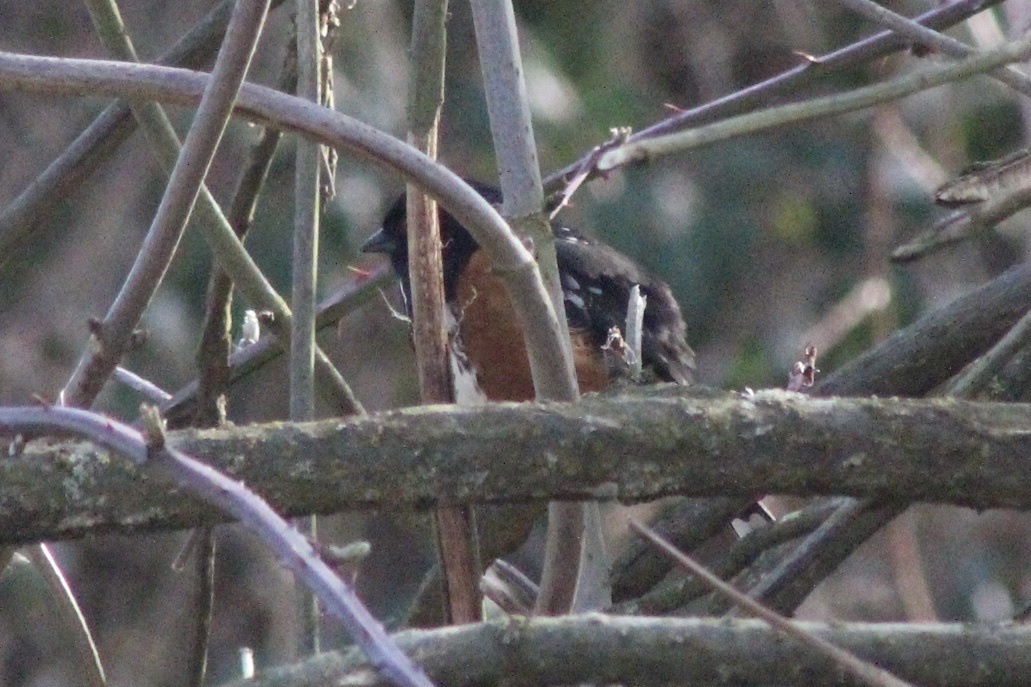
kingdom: Animalia
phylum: Chordata
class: Aves
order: Passeriformes
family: Passerellidae
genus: Pipilo
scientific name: Pipilo maculatus
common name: Spotted towhee
